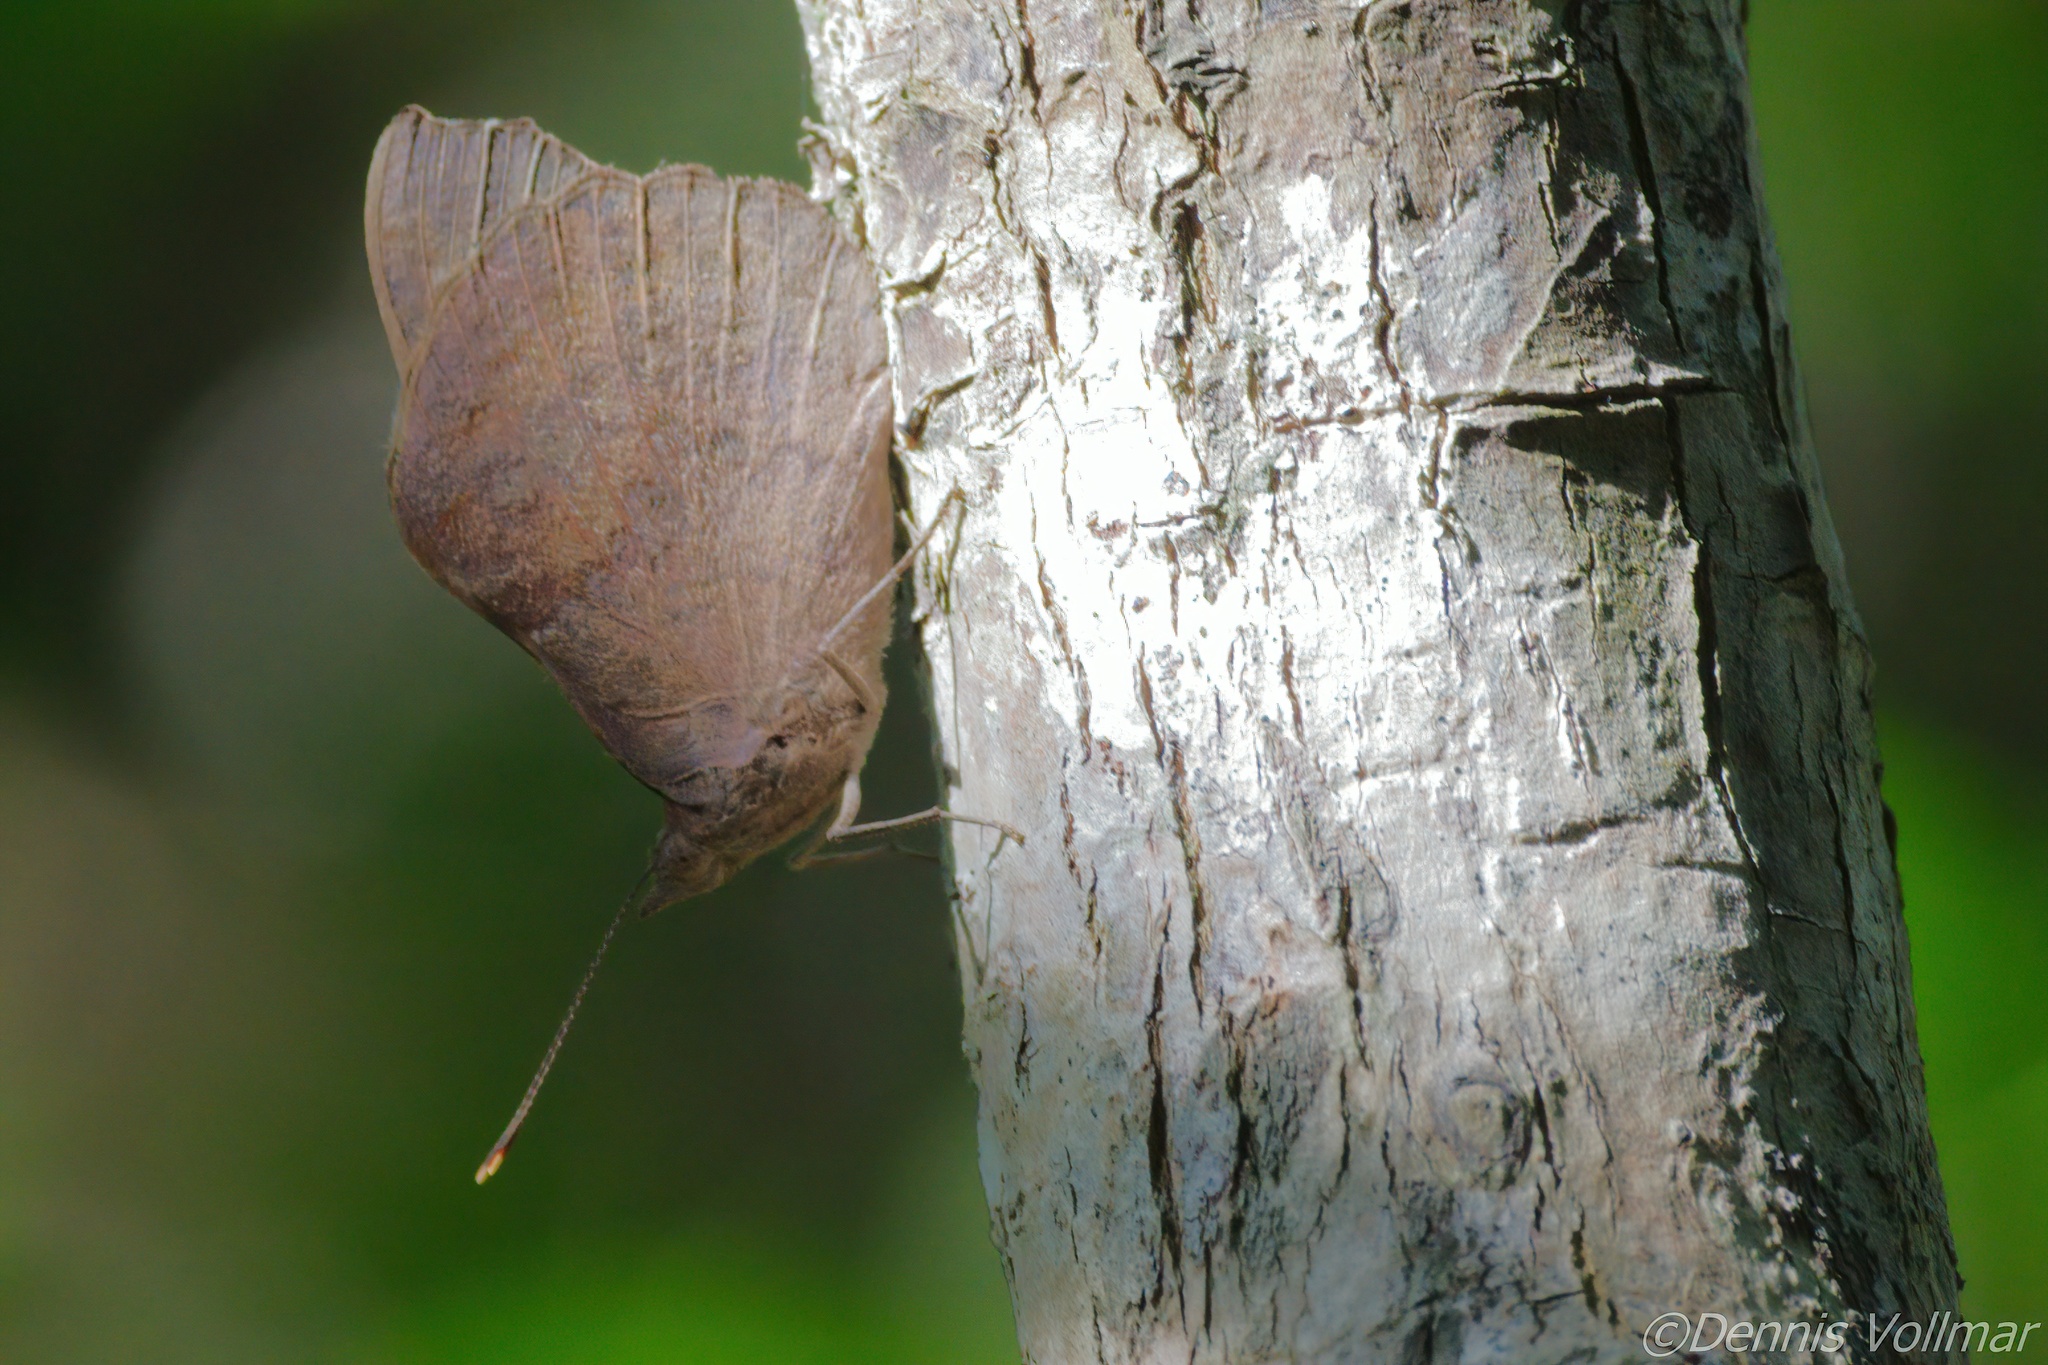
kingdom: Animalia
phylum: Arthropoda
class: Insecta
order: Lepidoptera
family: Nymphalidae
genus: Eunica
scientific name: Eunica tatila
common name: Florida purplewing
